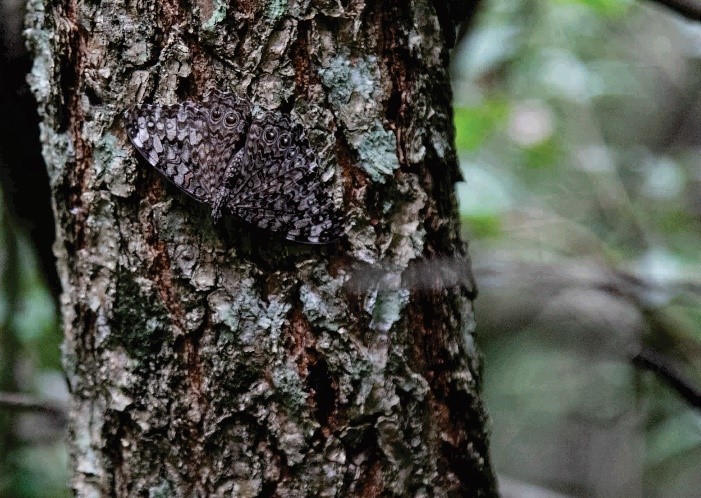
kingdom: Animalia
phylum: Arthropoda
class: Insecta
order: Lepidoptera
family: Nymphalidae
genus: Hamadryas
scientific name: Hamadryas februa
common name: Gray cracker
